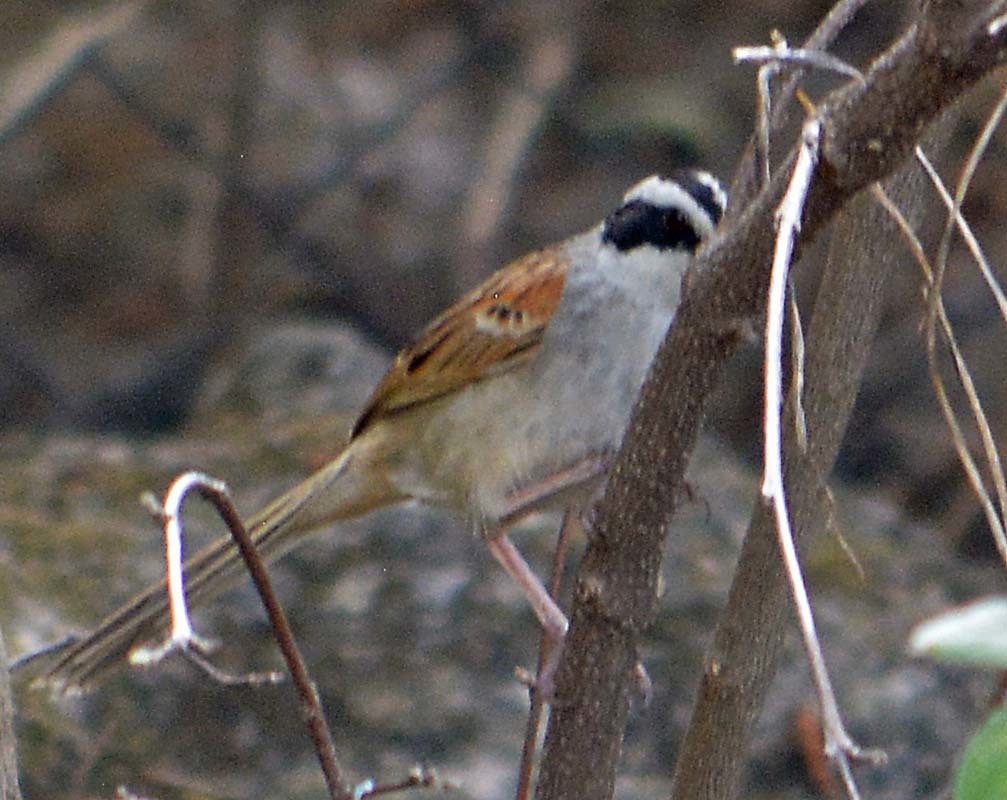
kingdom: Animalia
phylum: Chordata
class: Aves
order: Passeriformes
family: Passerellidae
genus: Peucaea
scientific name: Peucaea ruficauda
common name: Stripe-headed sparrow
